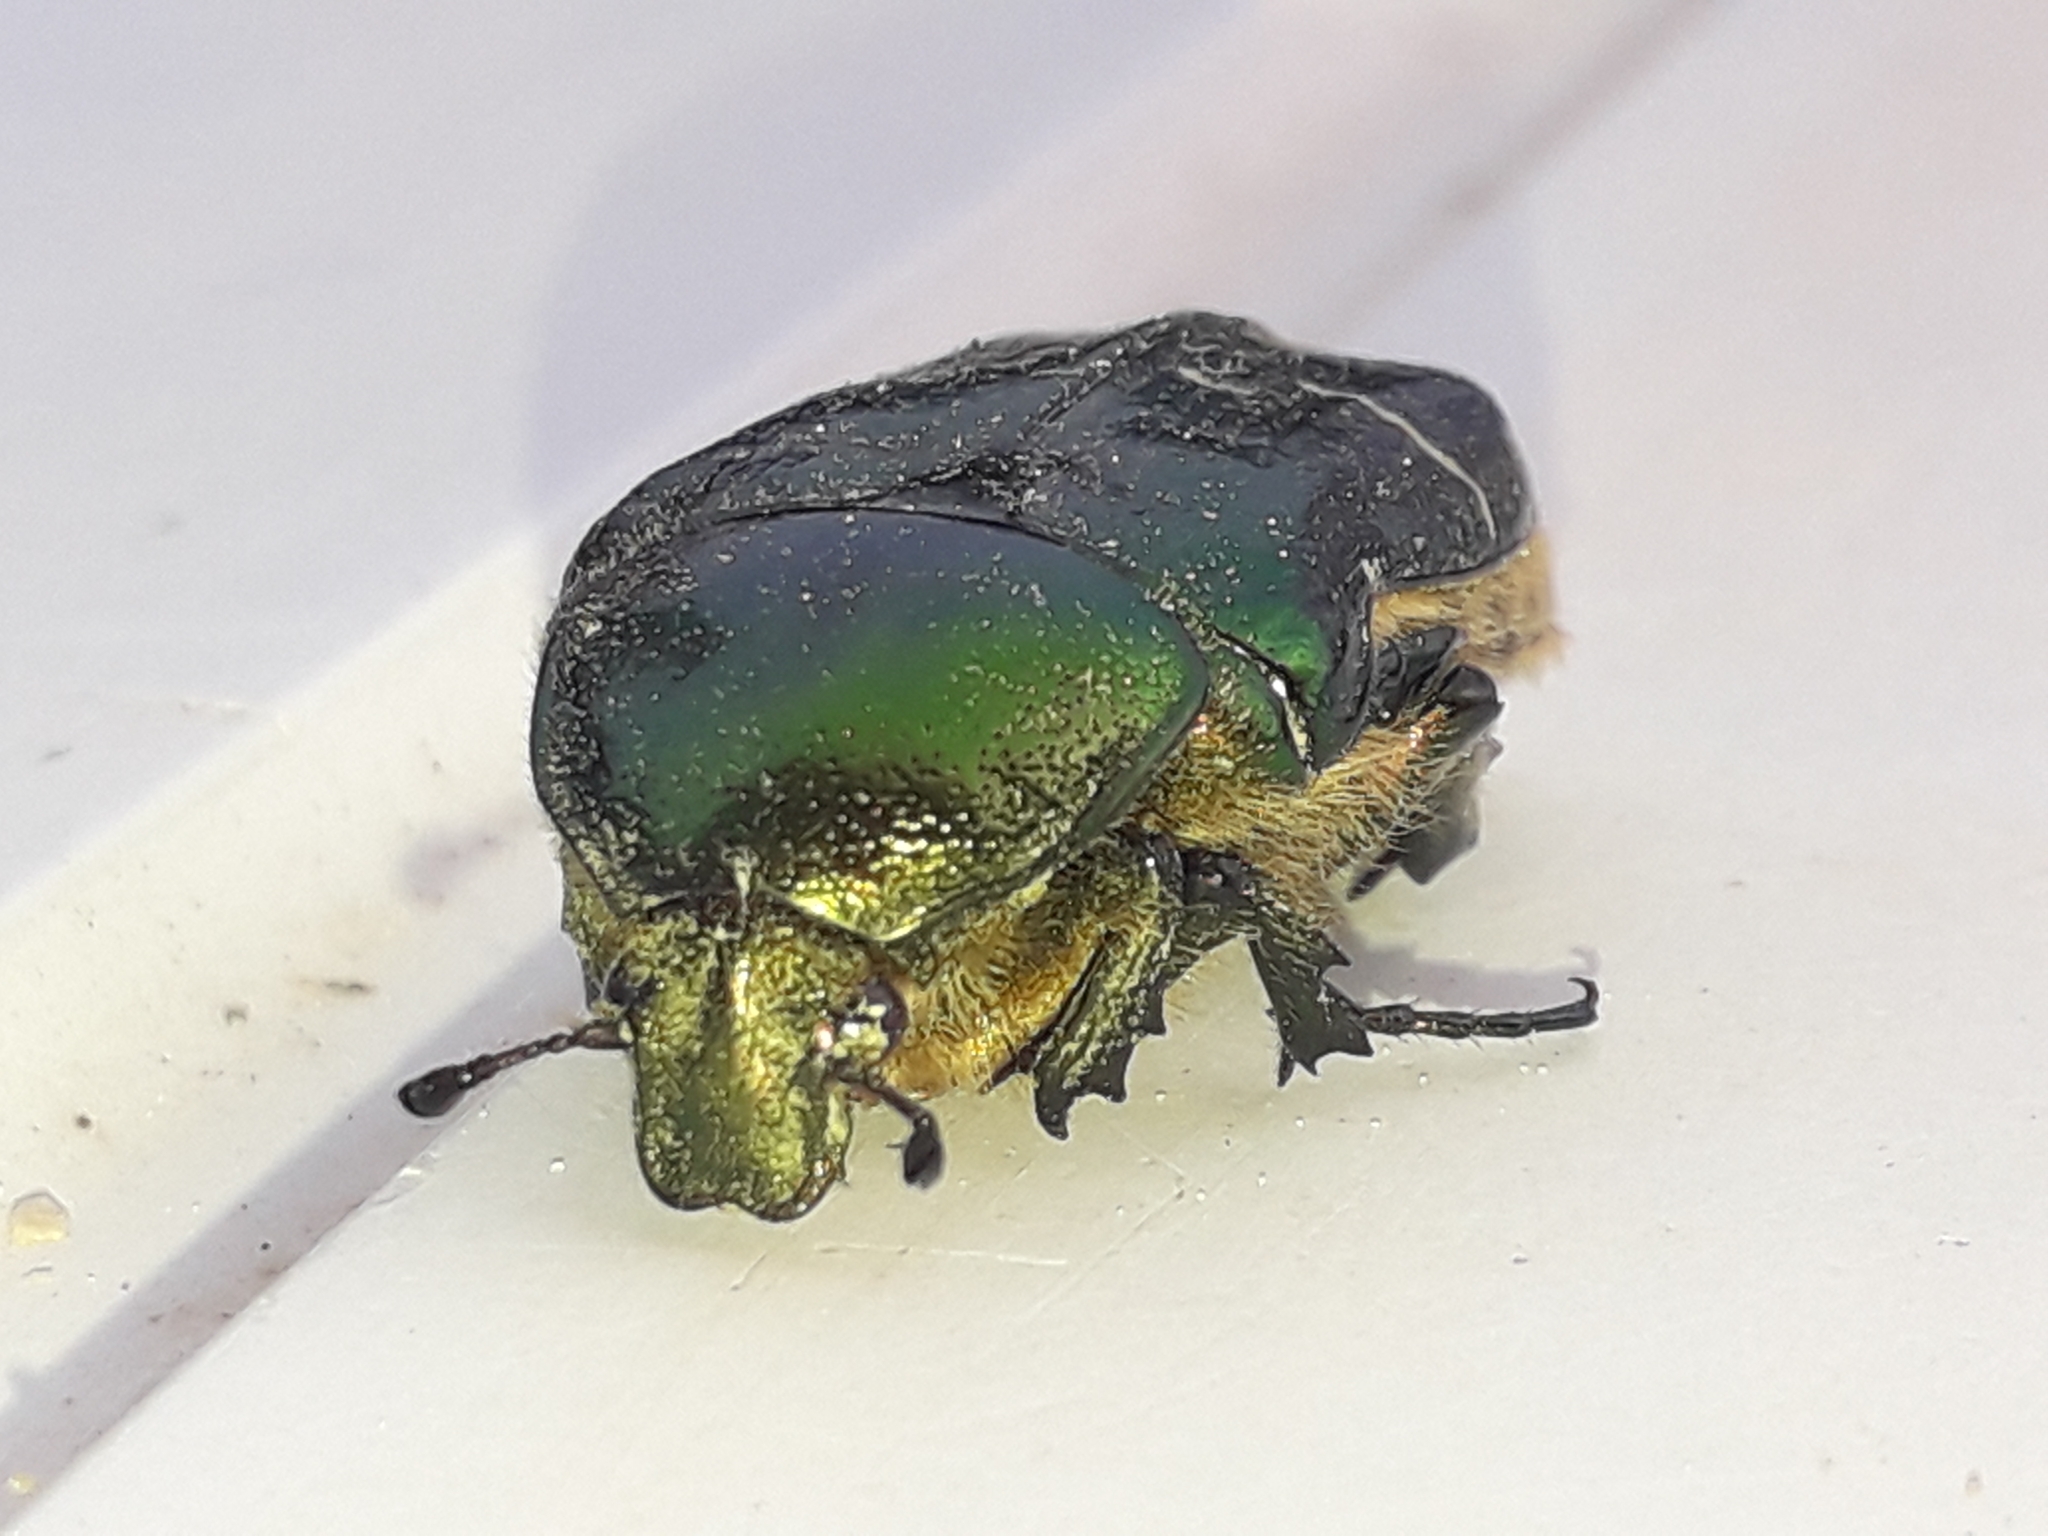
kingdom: Animalia
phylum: Arthropoda
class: Insecta
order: Coleoptera
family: Scarabaeidae
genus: Cetonia
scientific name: Cetonia aurata
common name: Rose chafer
